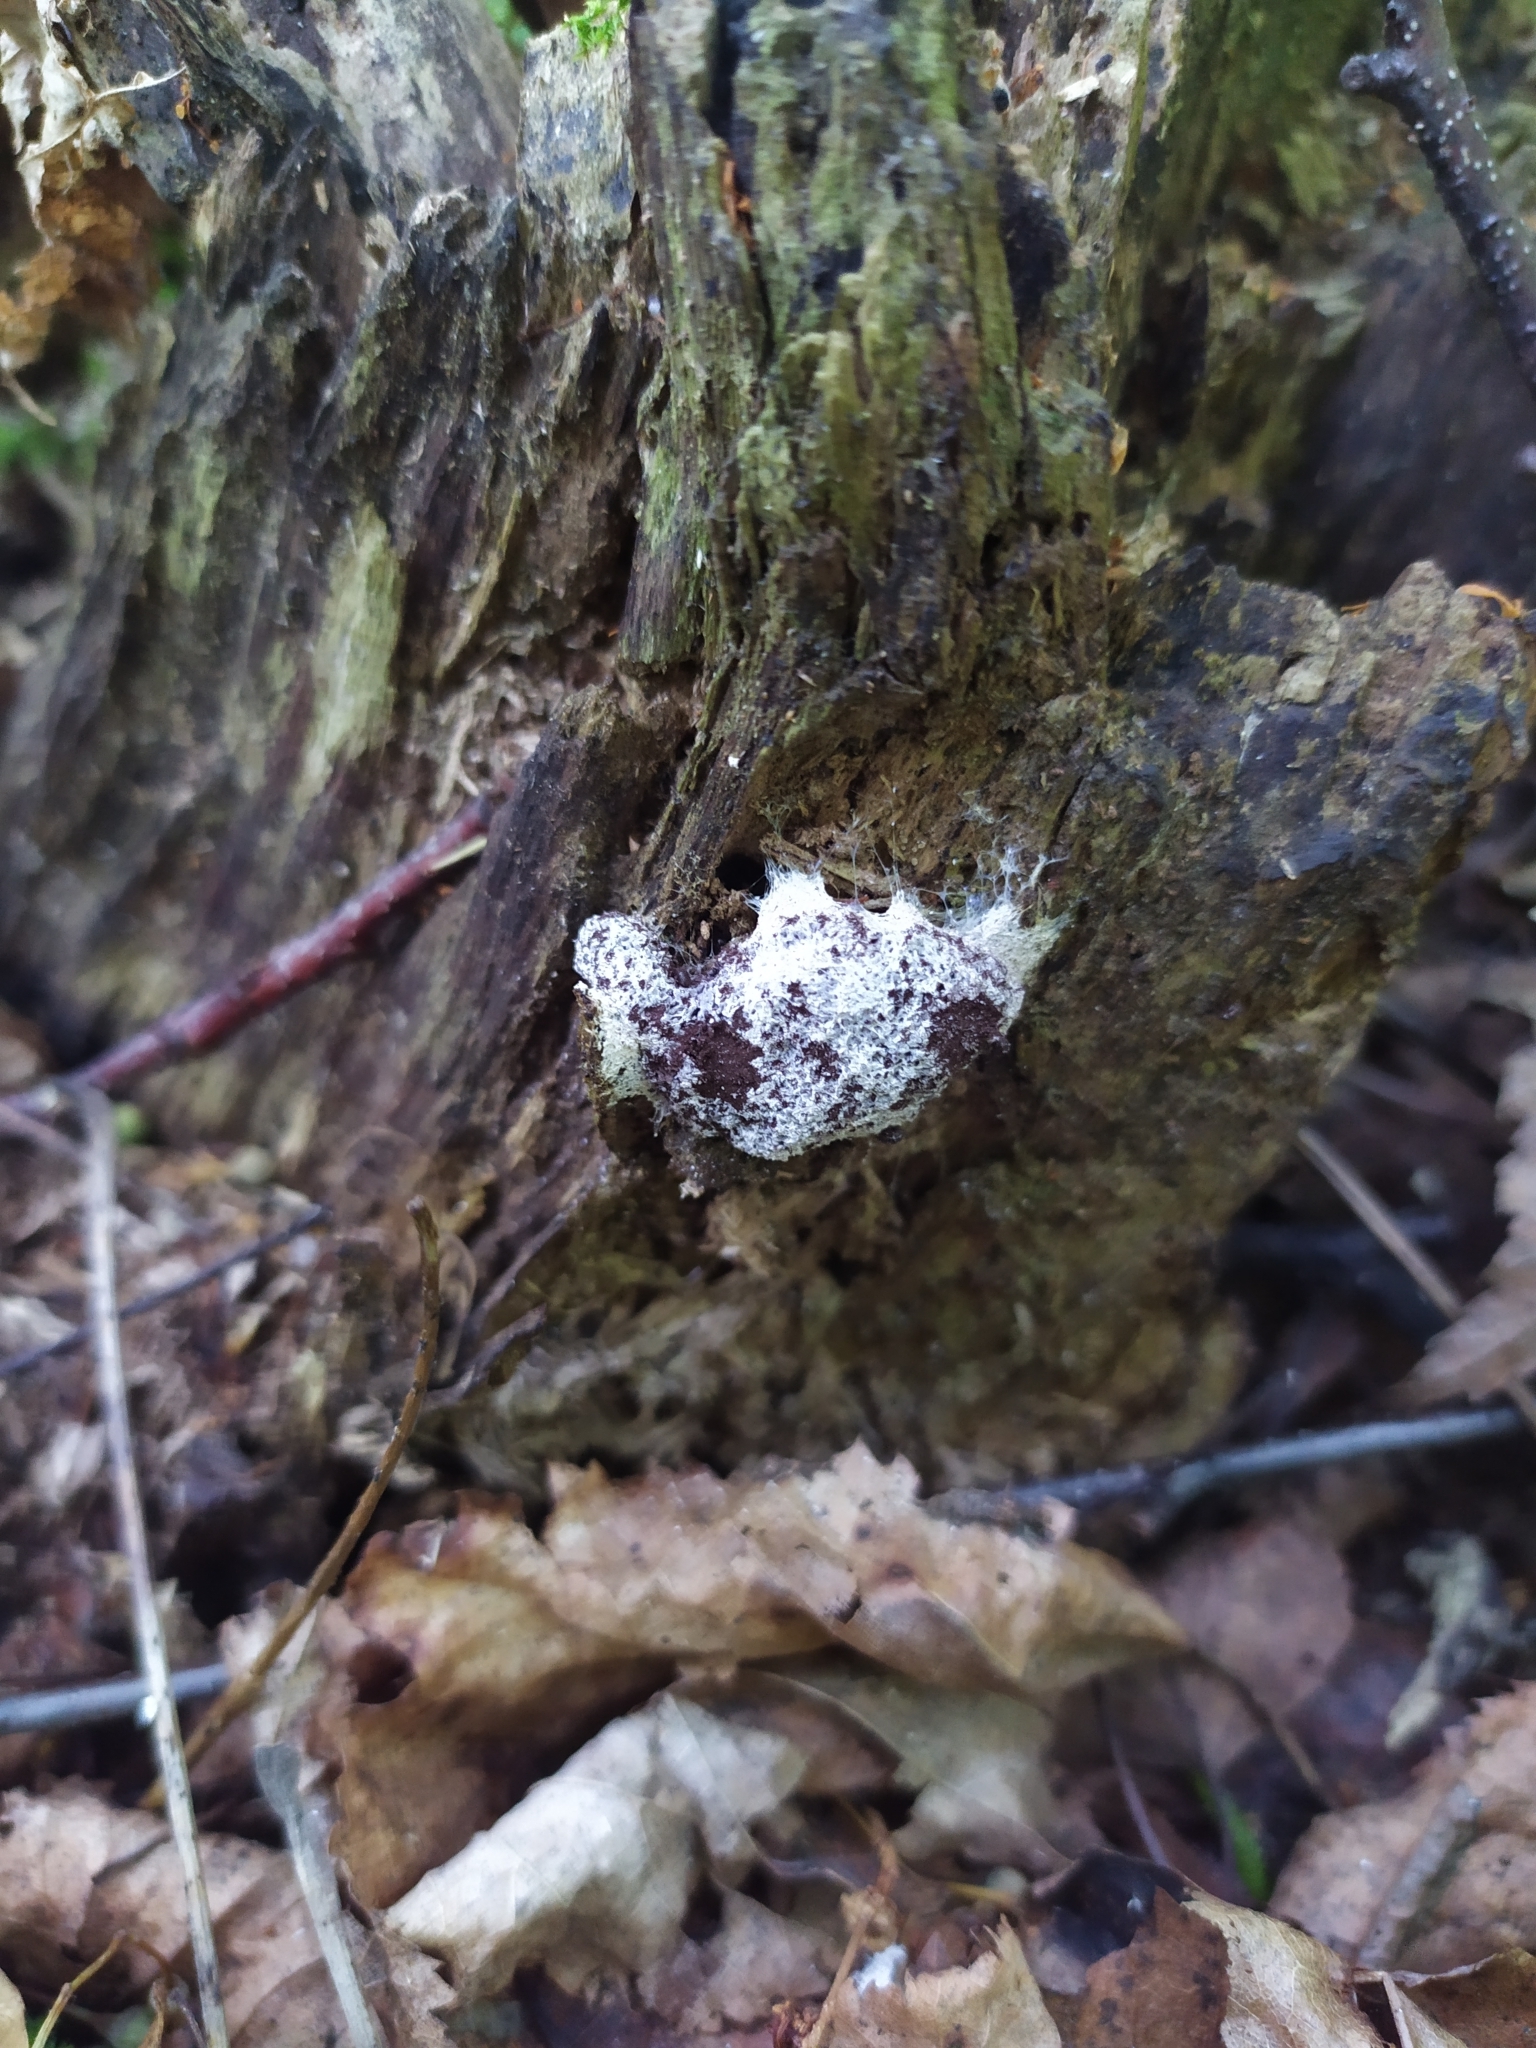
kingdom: Protozoa
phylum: Mycetozoa
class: Myxomycetes
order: Physarales
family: Physaraceae
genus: Fuligo
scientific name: Fuligo septica
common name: Dog vomit slime mold
